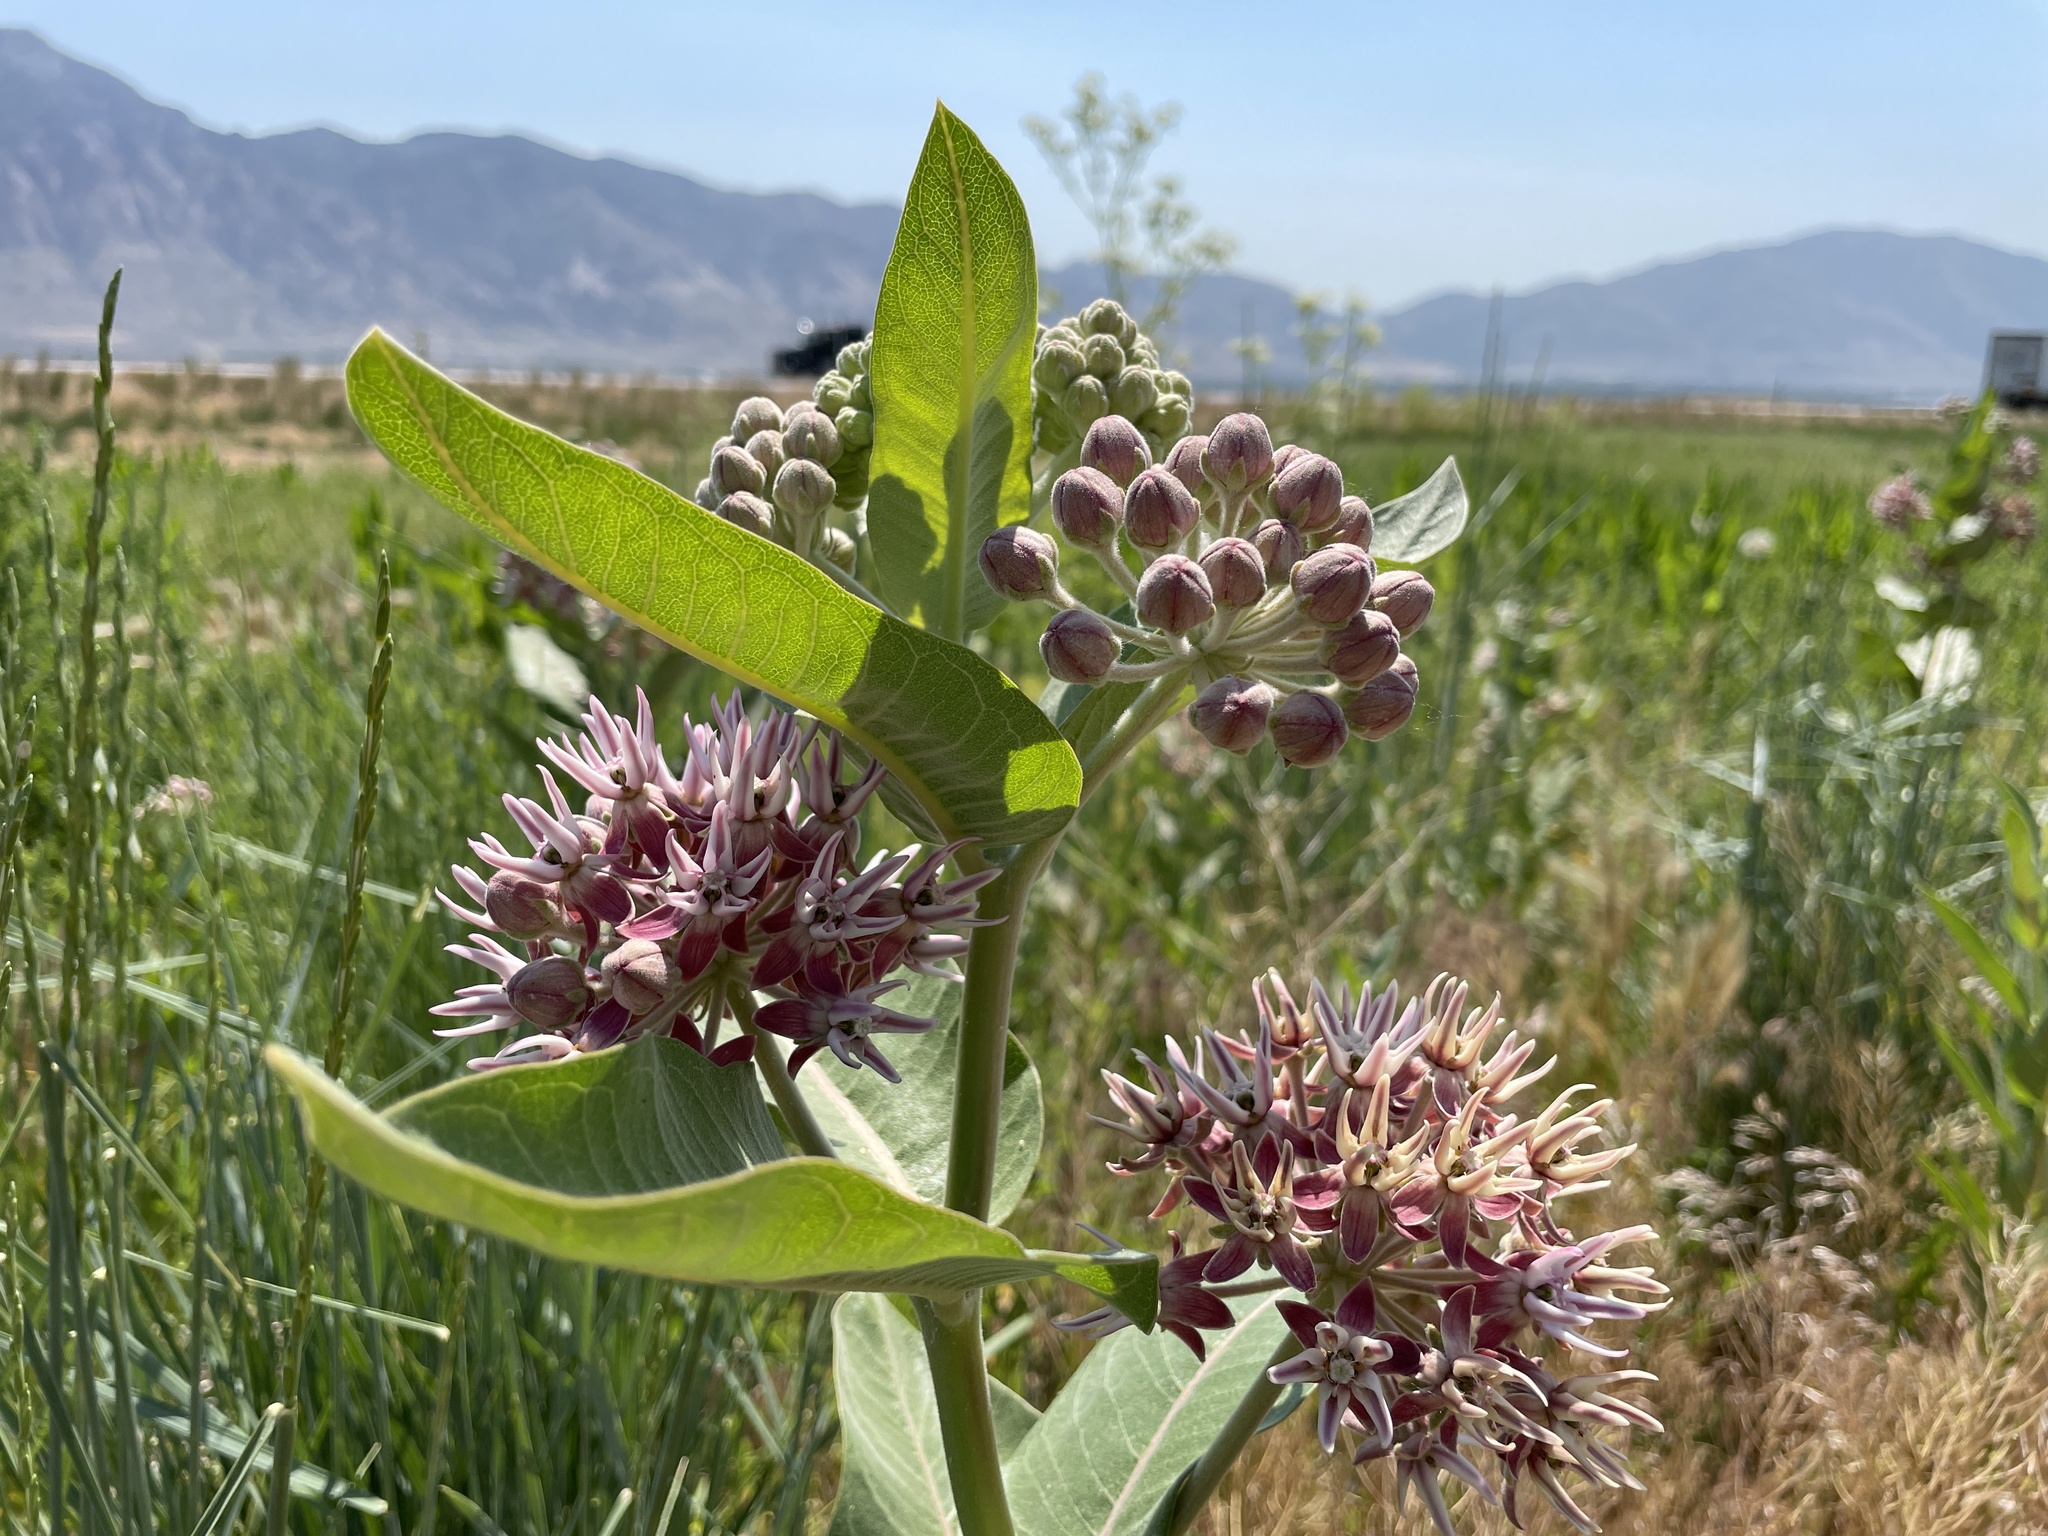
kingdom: Plantae
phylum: Tracheophyta
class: Magnoliopsida
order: Gentianales
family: Apocynaceae
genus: Asclepias
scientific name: Asclepias speciosa
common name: Showy milkweed
